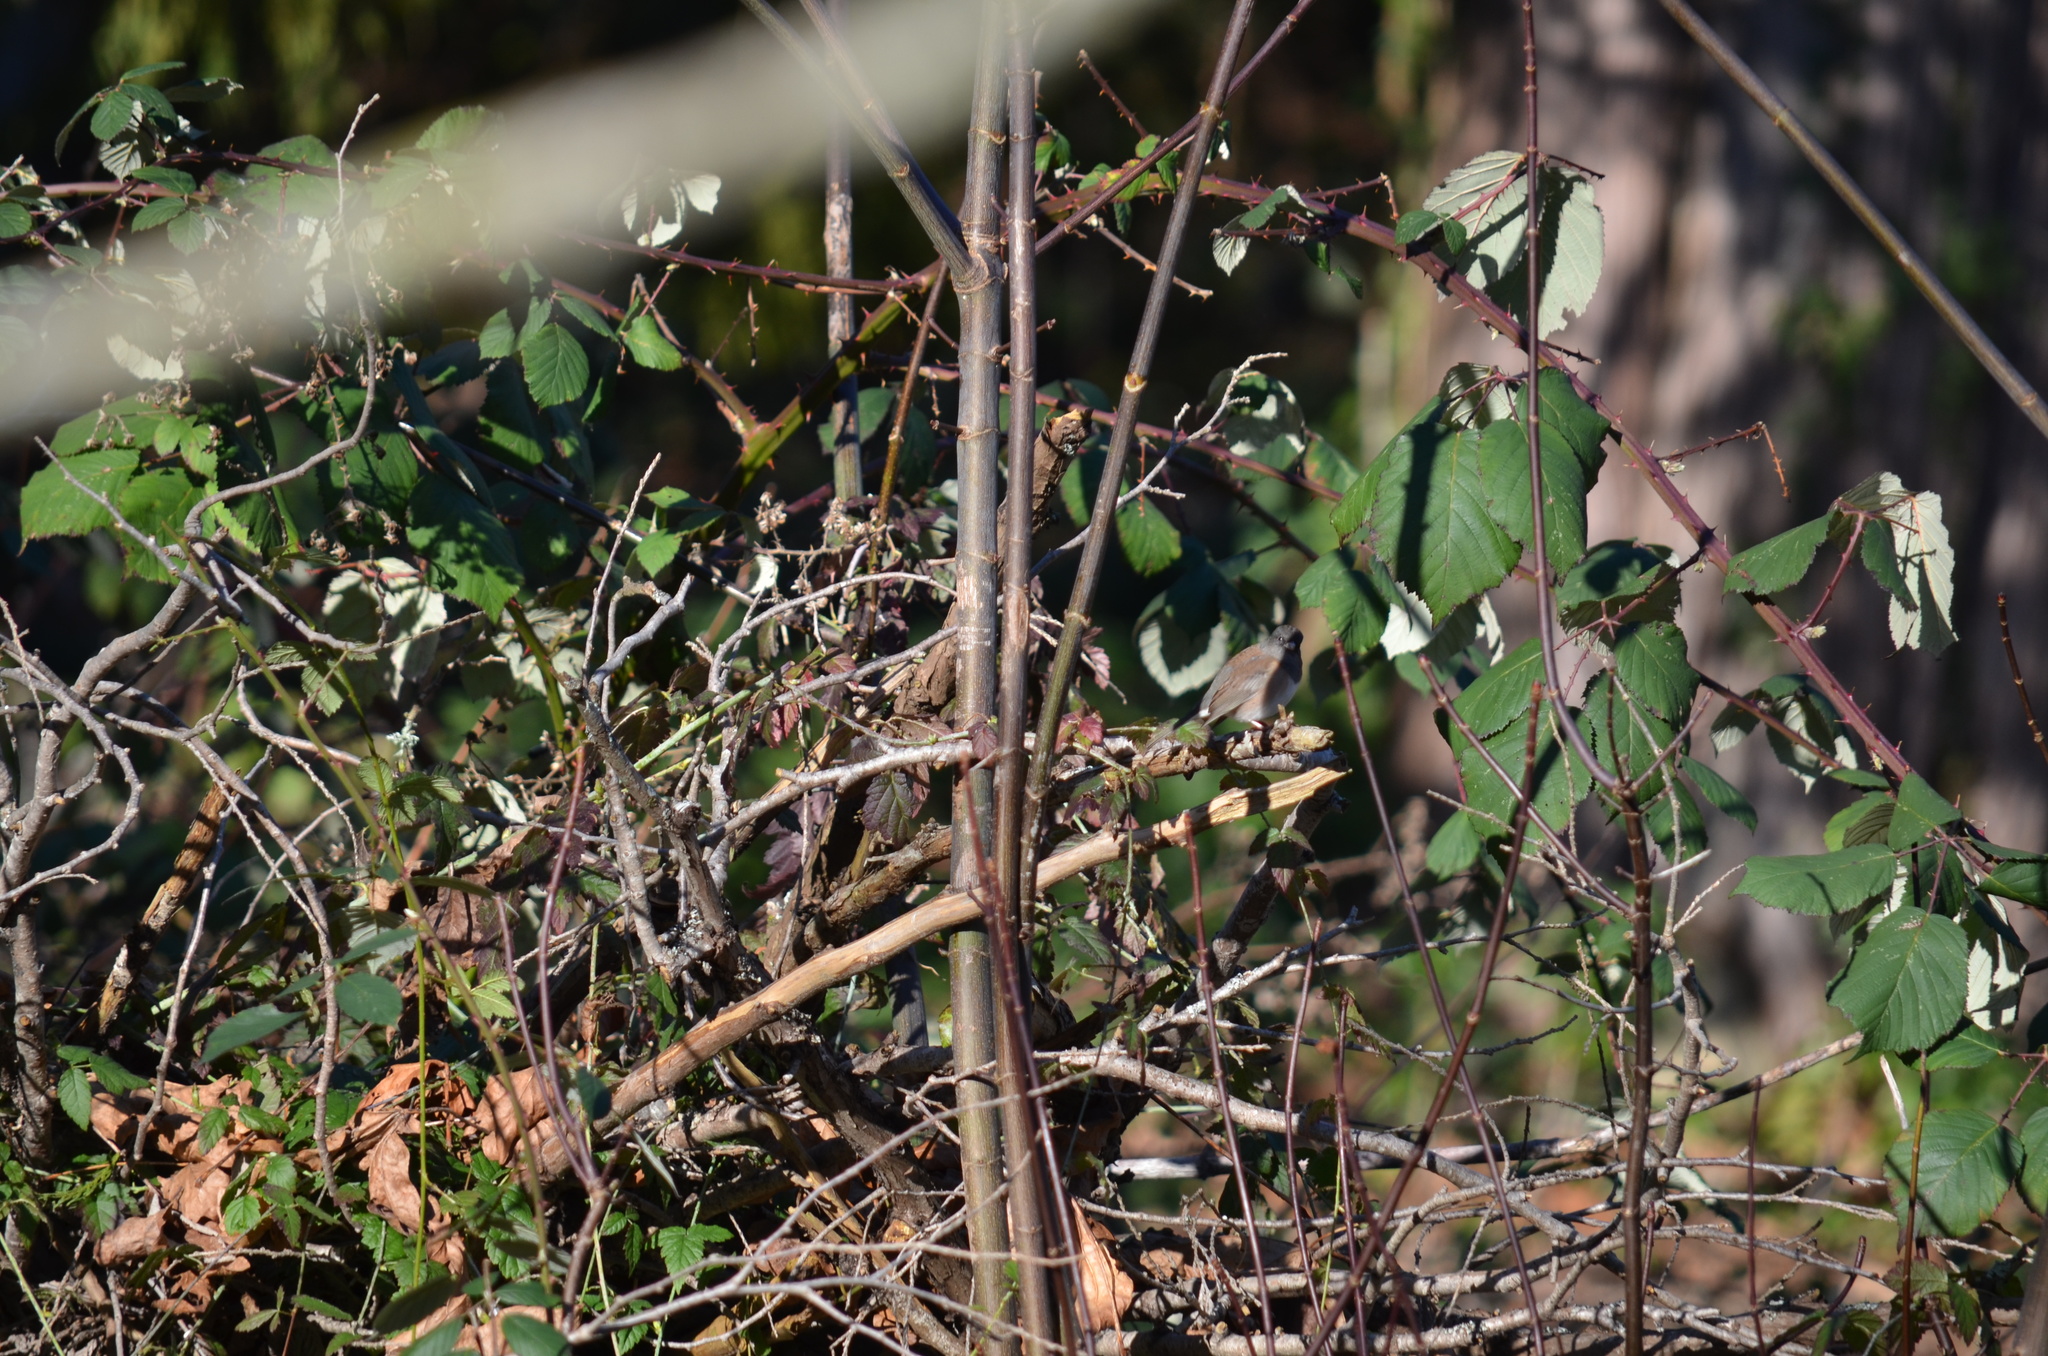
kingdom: Animalia
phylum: Chordata
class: Aves
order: Passeriformes
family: Passerellidae
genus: Junco
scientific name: Junco hyemalis
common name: Dark-eyed junco
